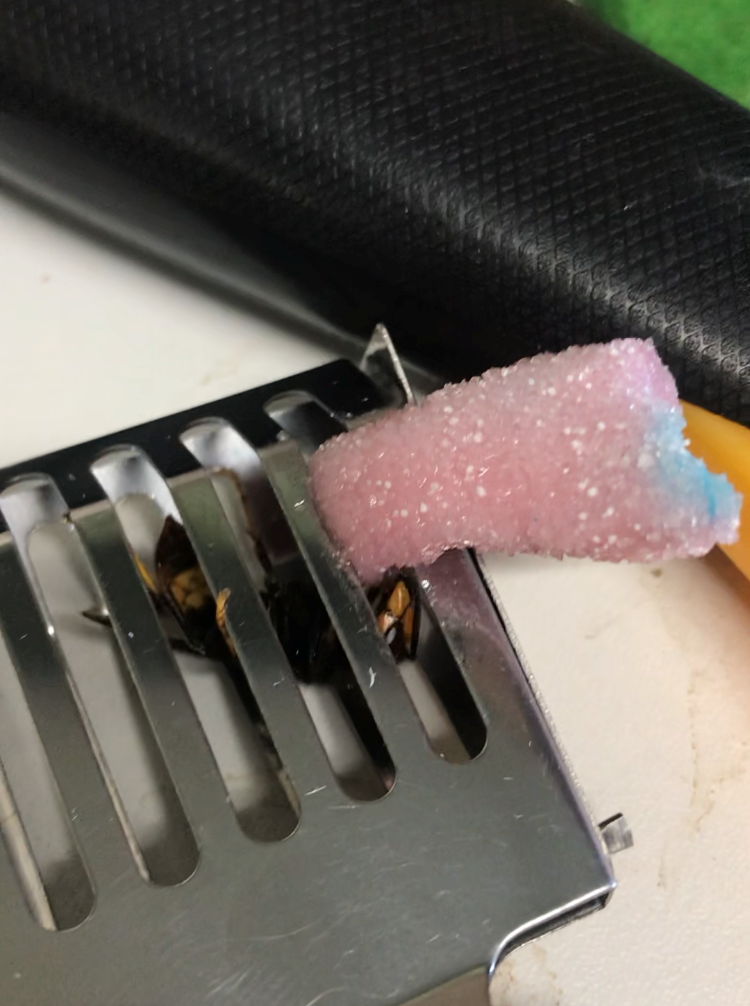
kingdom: Animalia
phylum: Arthropoda
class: Insecta
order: Hymenoptera
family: Vespidae
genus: Vespa
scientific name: Vespa velutina
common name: Asian hornet
